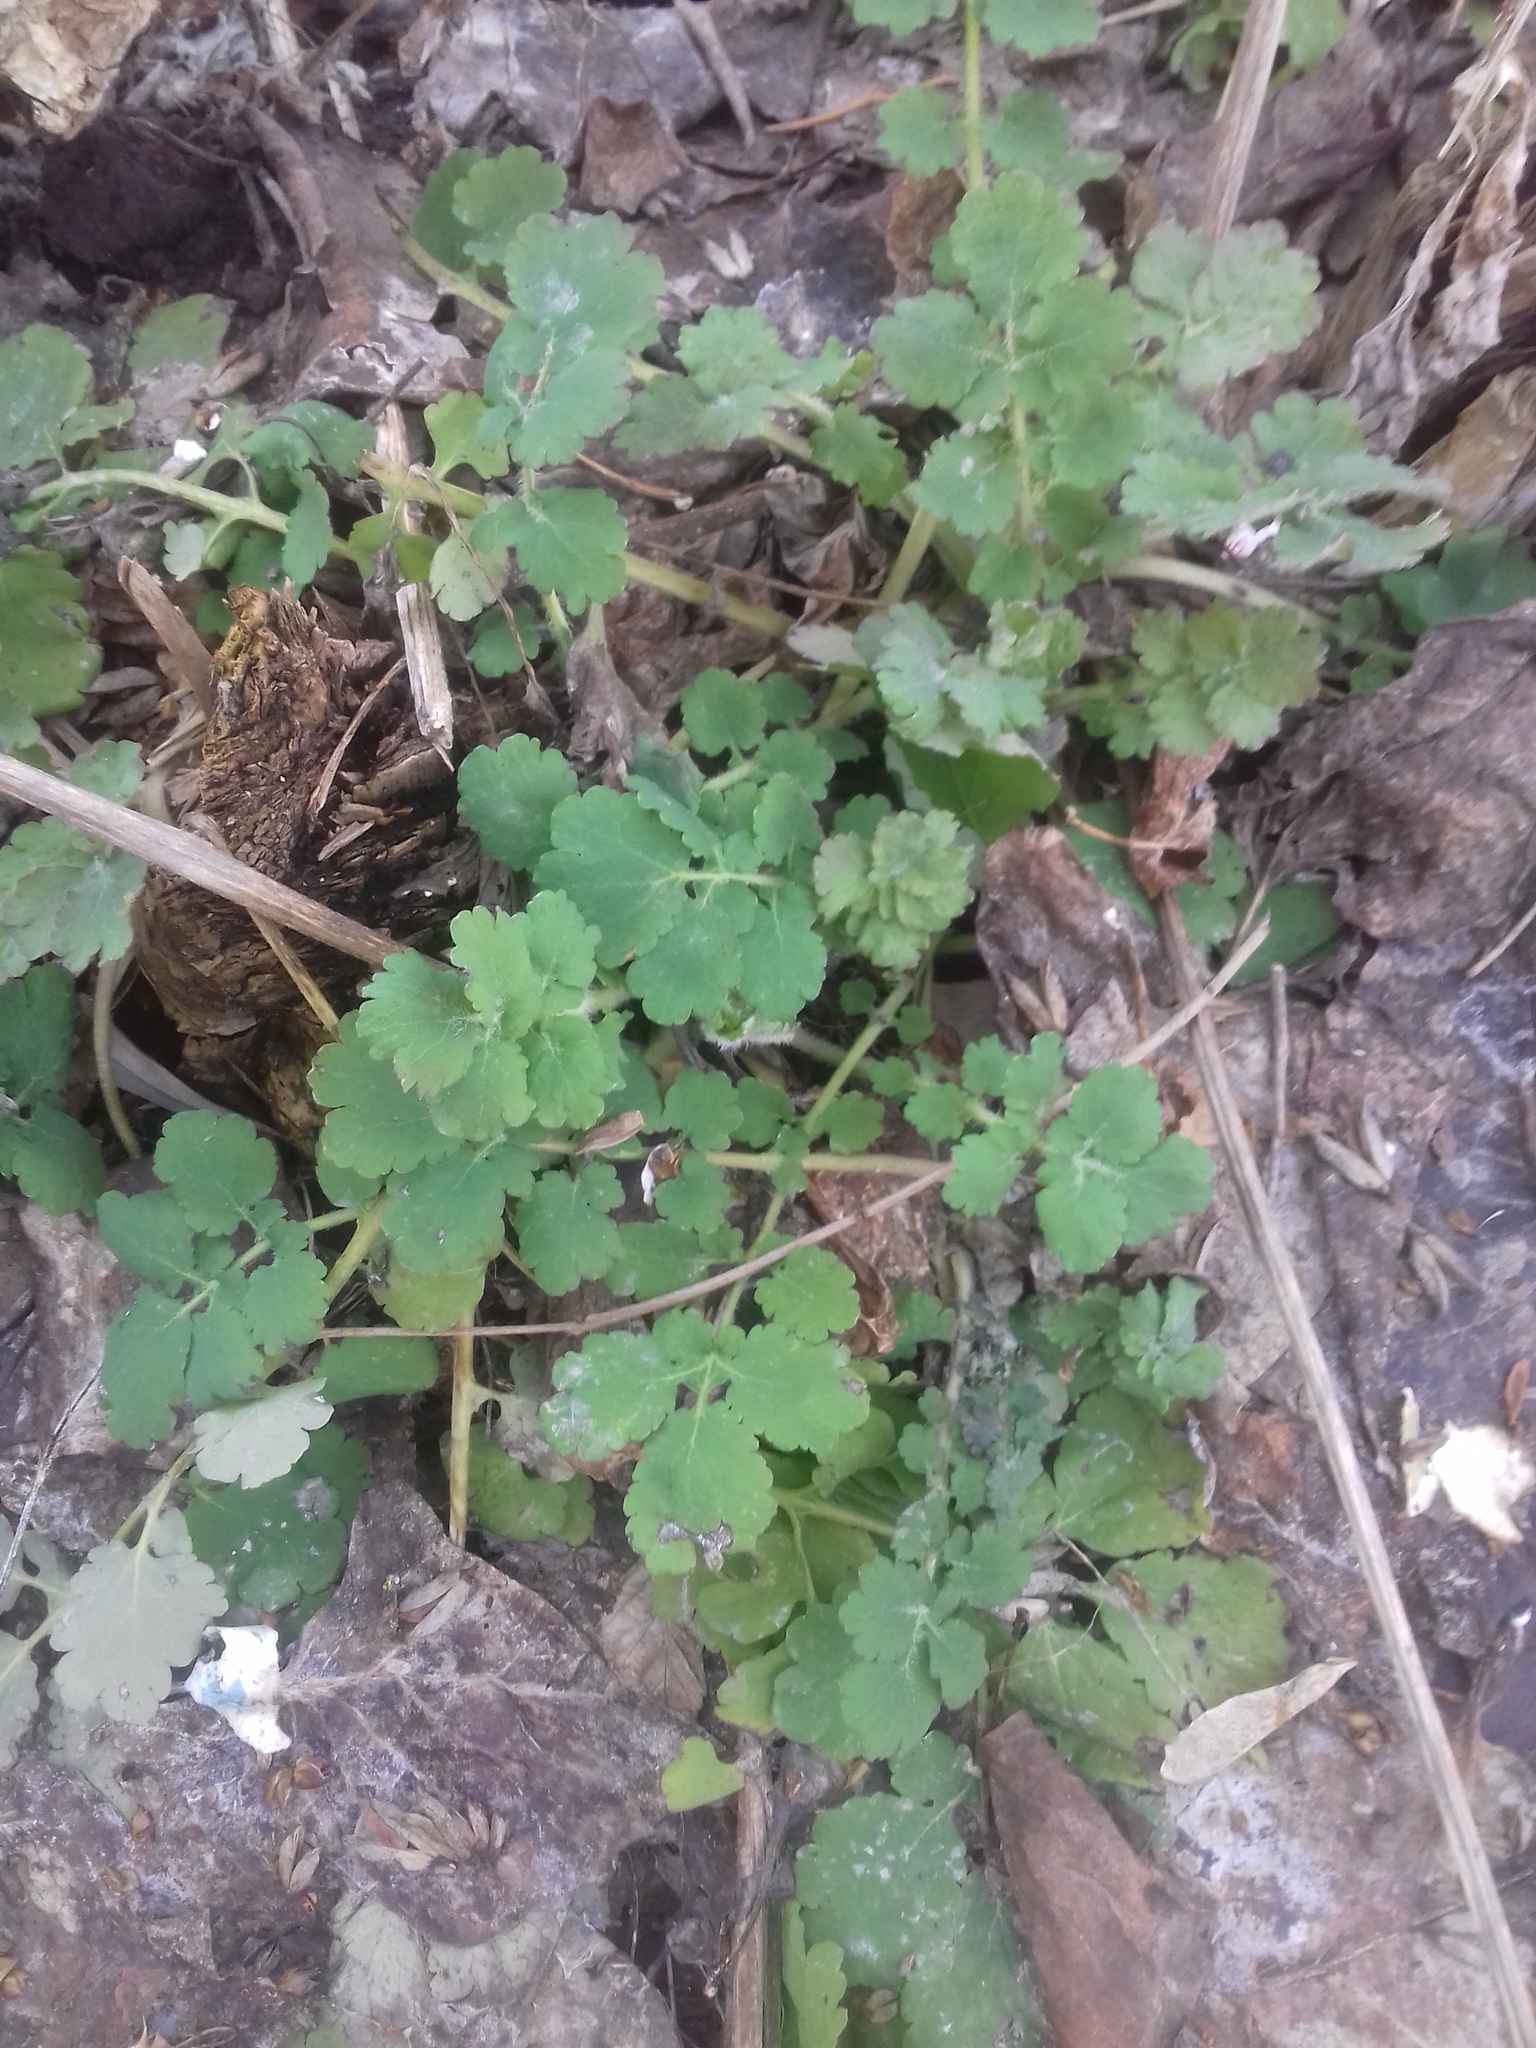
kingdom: Plantae
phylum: Tracheophyta
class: Magnoliopsida
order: Ranunculales
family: Papaveraceae
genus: Chelidonium
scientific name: Chelidonium majus
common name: Greater celandine
